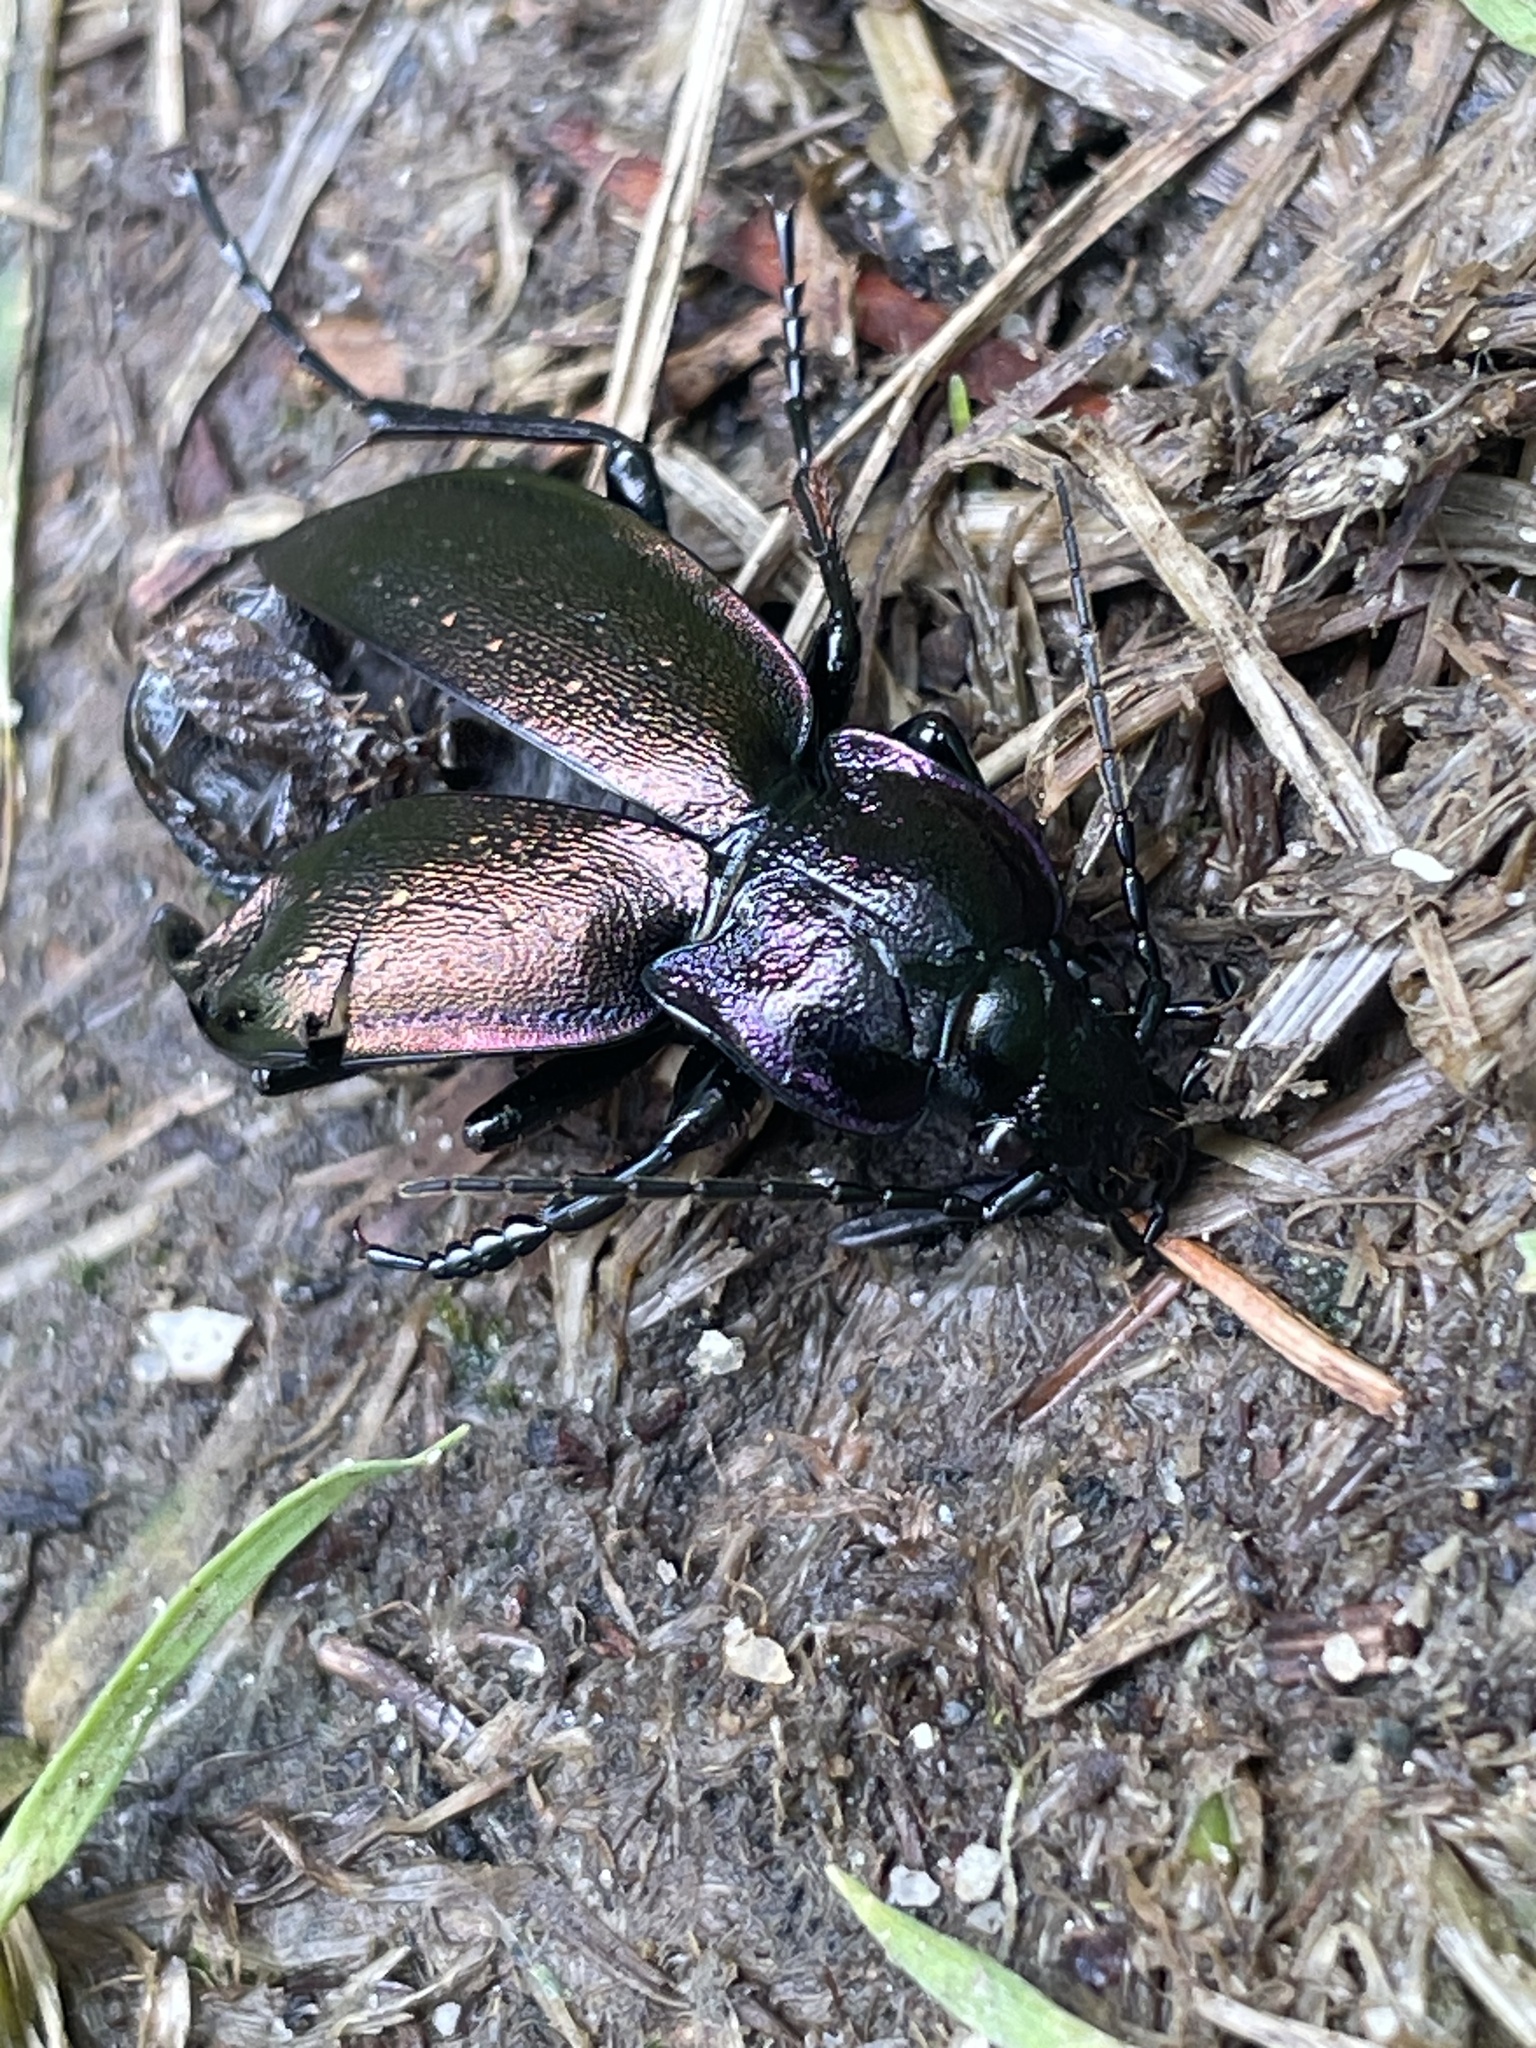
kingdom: Animalia
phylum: Arthropoda
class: Insecta
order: Coleoptera
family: Carabidae
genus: Carabus
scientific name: Carabus nemoralis
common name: European ground beetle
